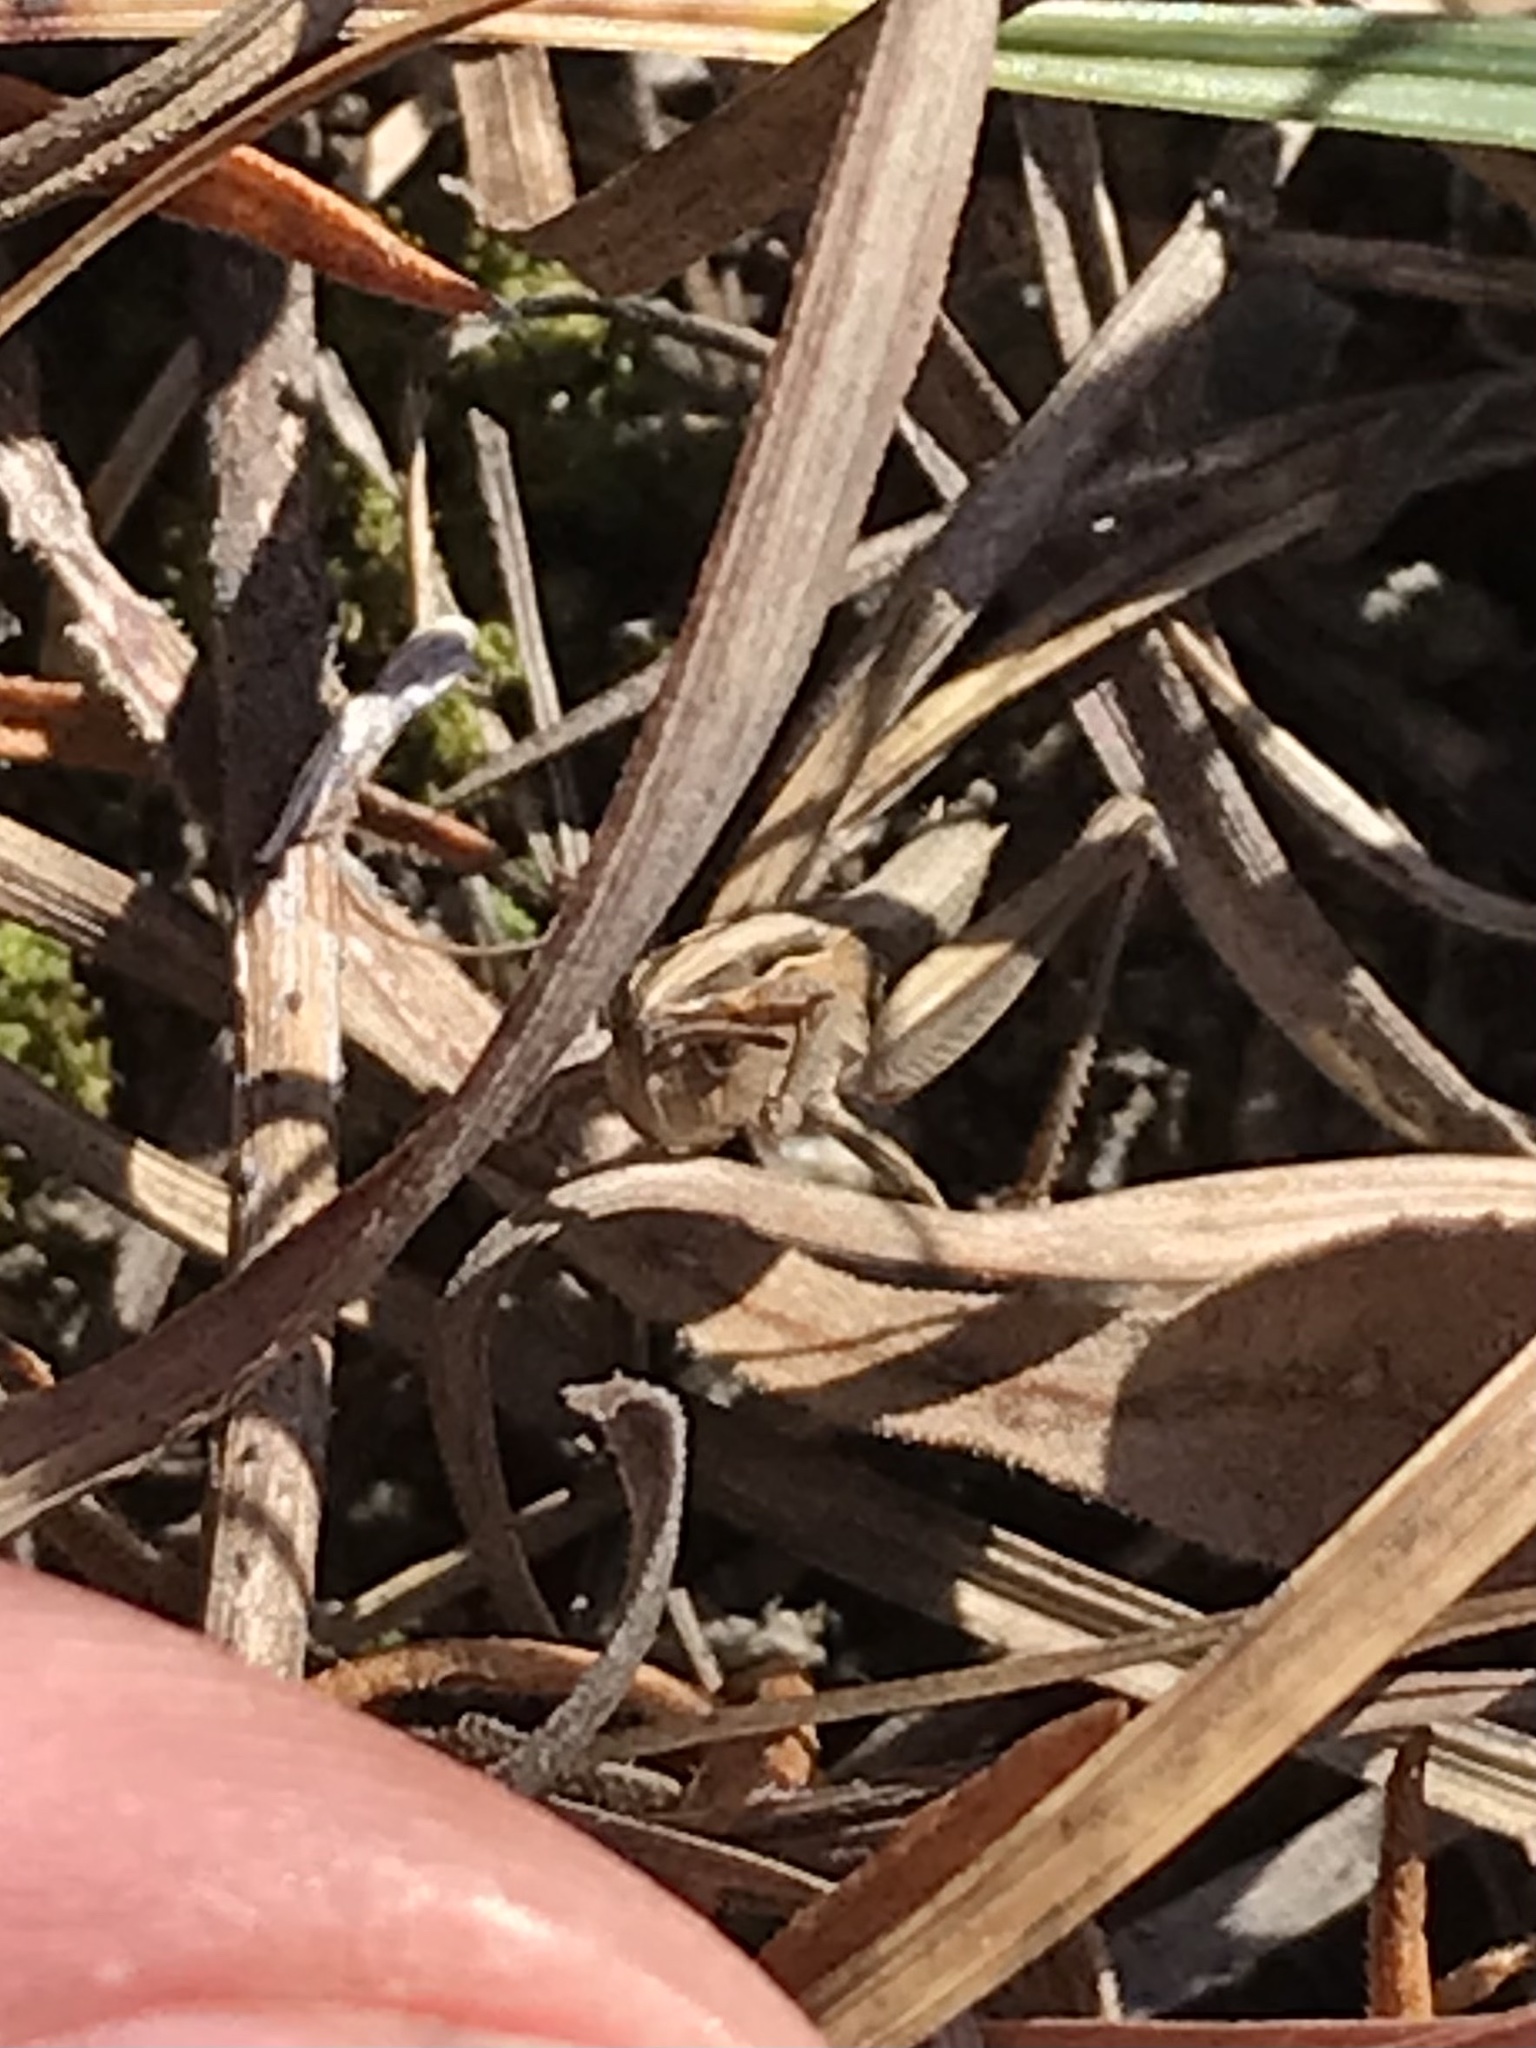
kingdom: Animalia
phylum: Arthropoda
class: Insecta
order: Orthoptera
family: Acrididae
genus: Eritettix
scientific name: Eritettix simplex
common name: Velvet-striped grasshopper
